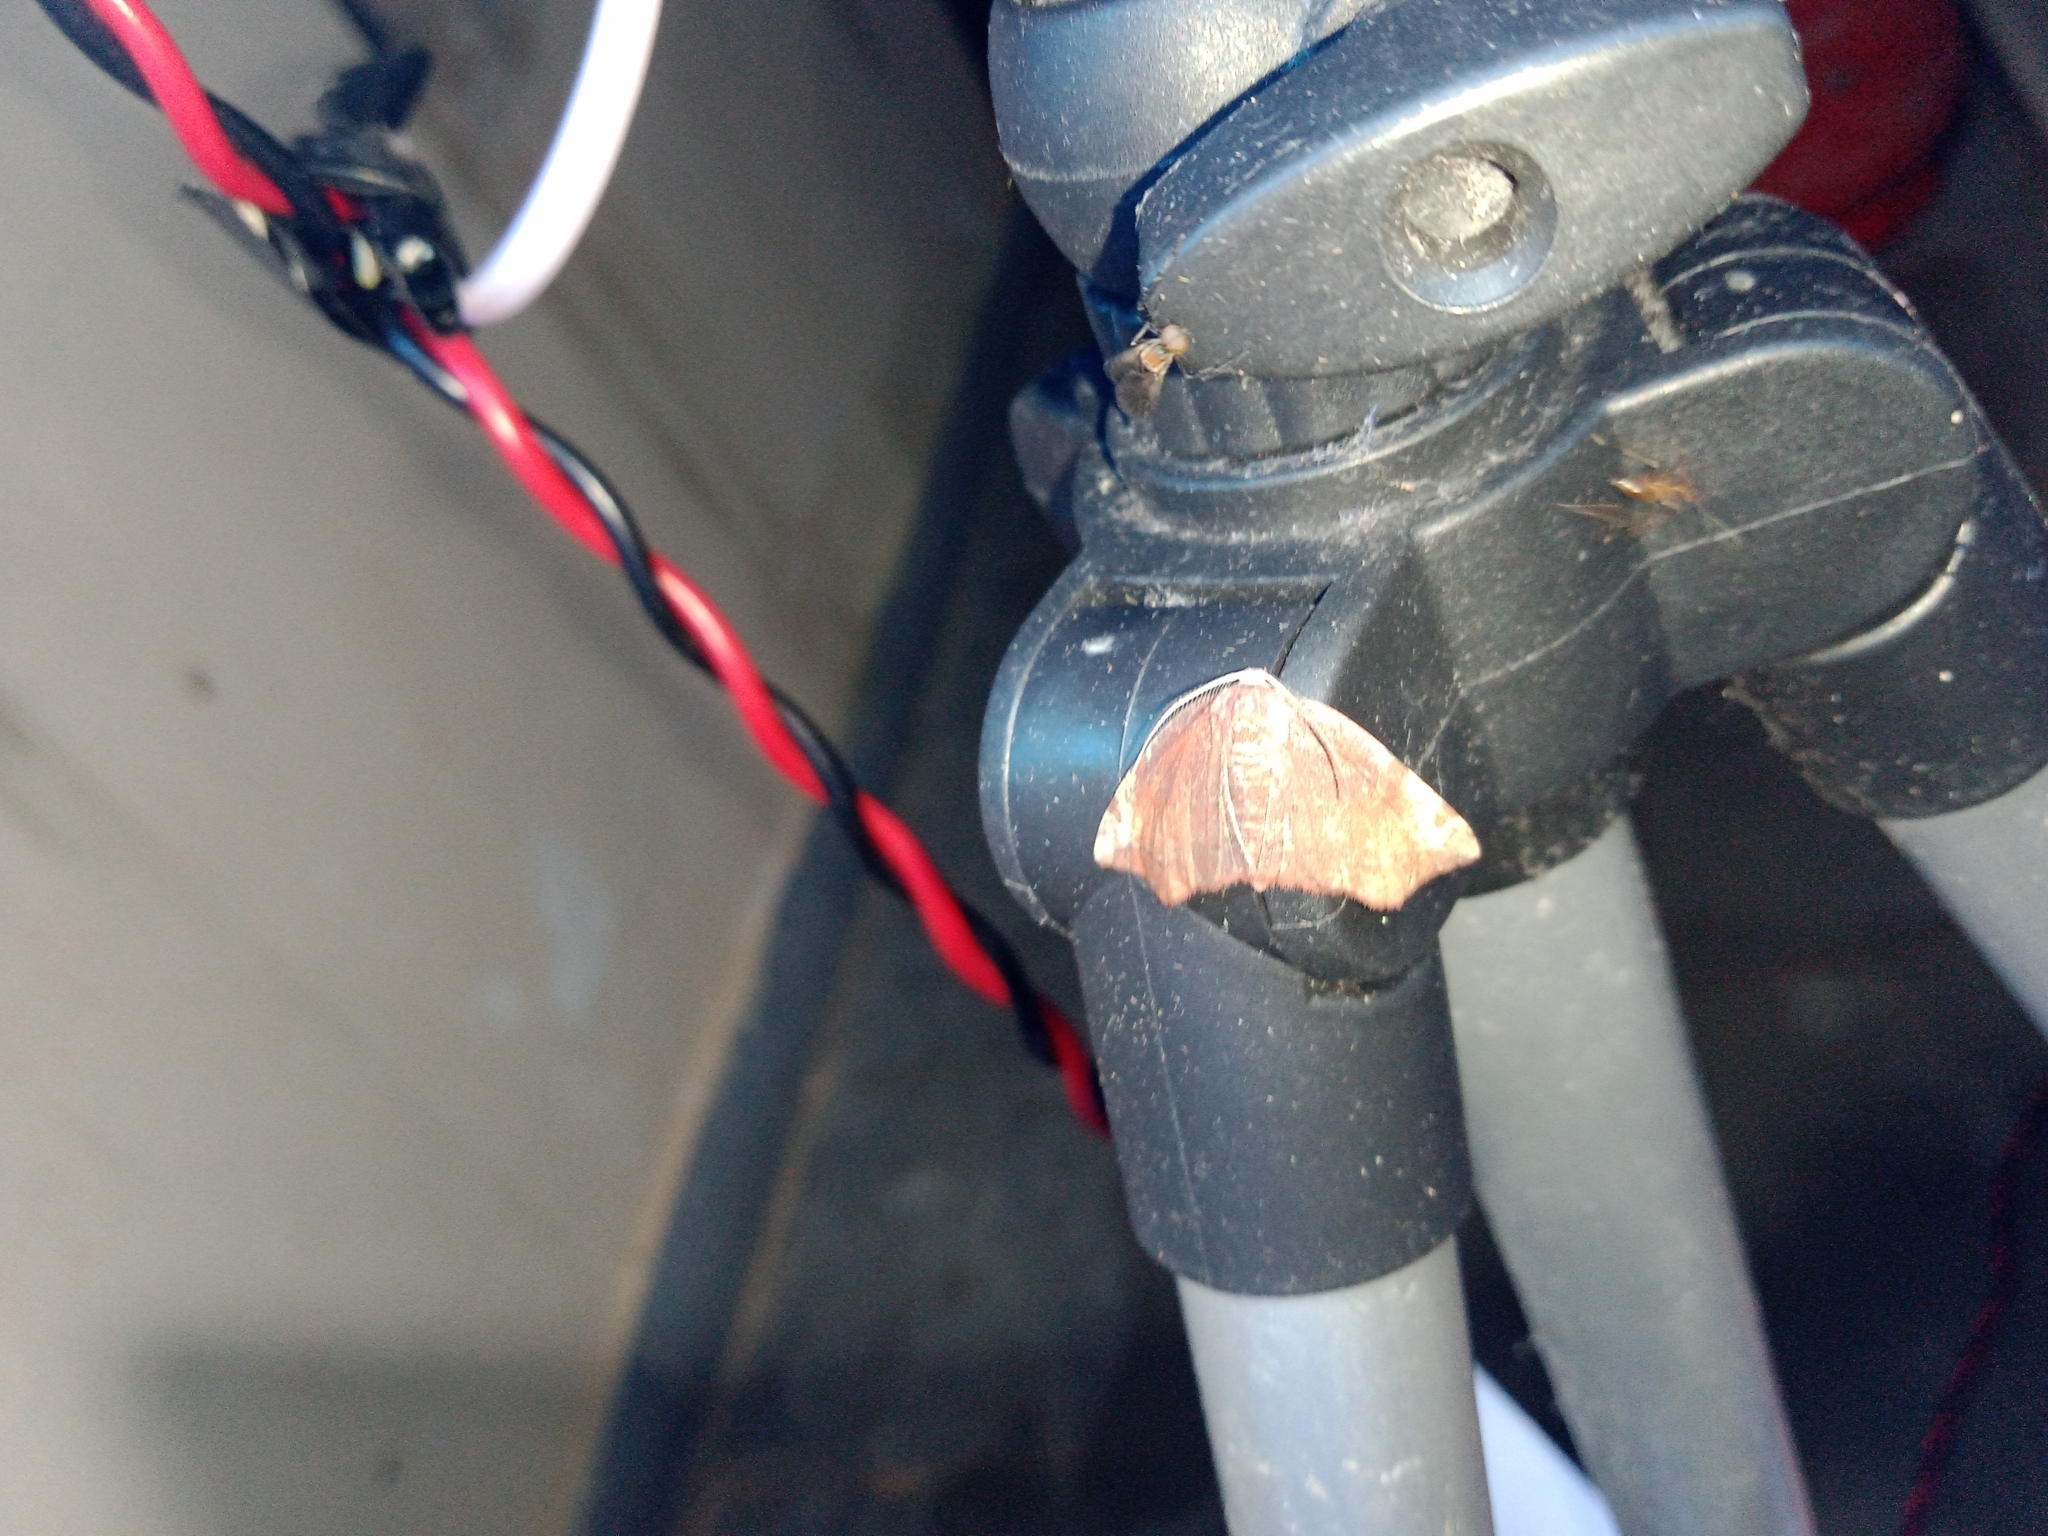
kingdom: Animalia
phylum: Arthropoda
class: Insecta
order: Lepidoptera
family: Geometridae
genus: Achrosis
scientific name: Achrosis rondelaria
